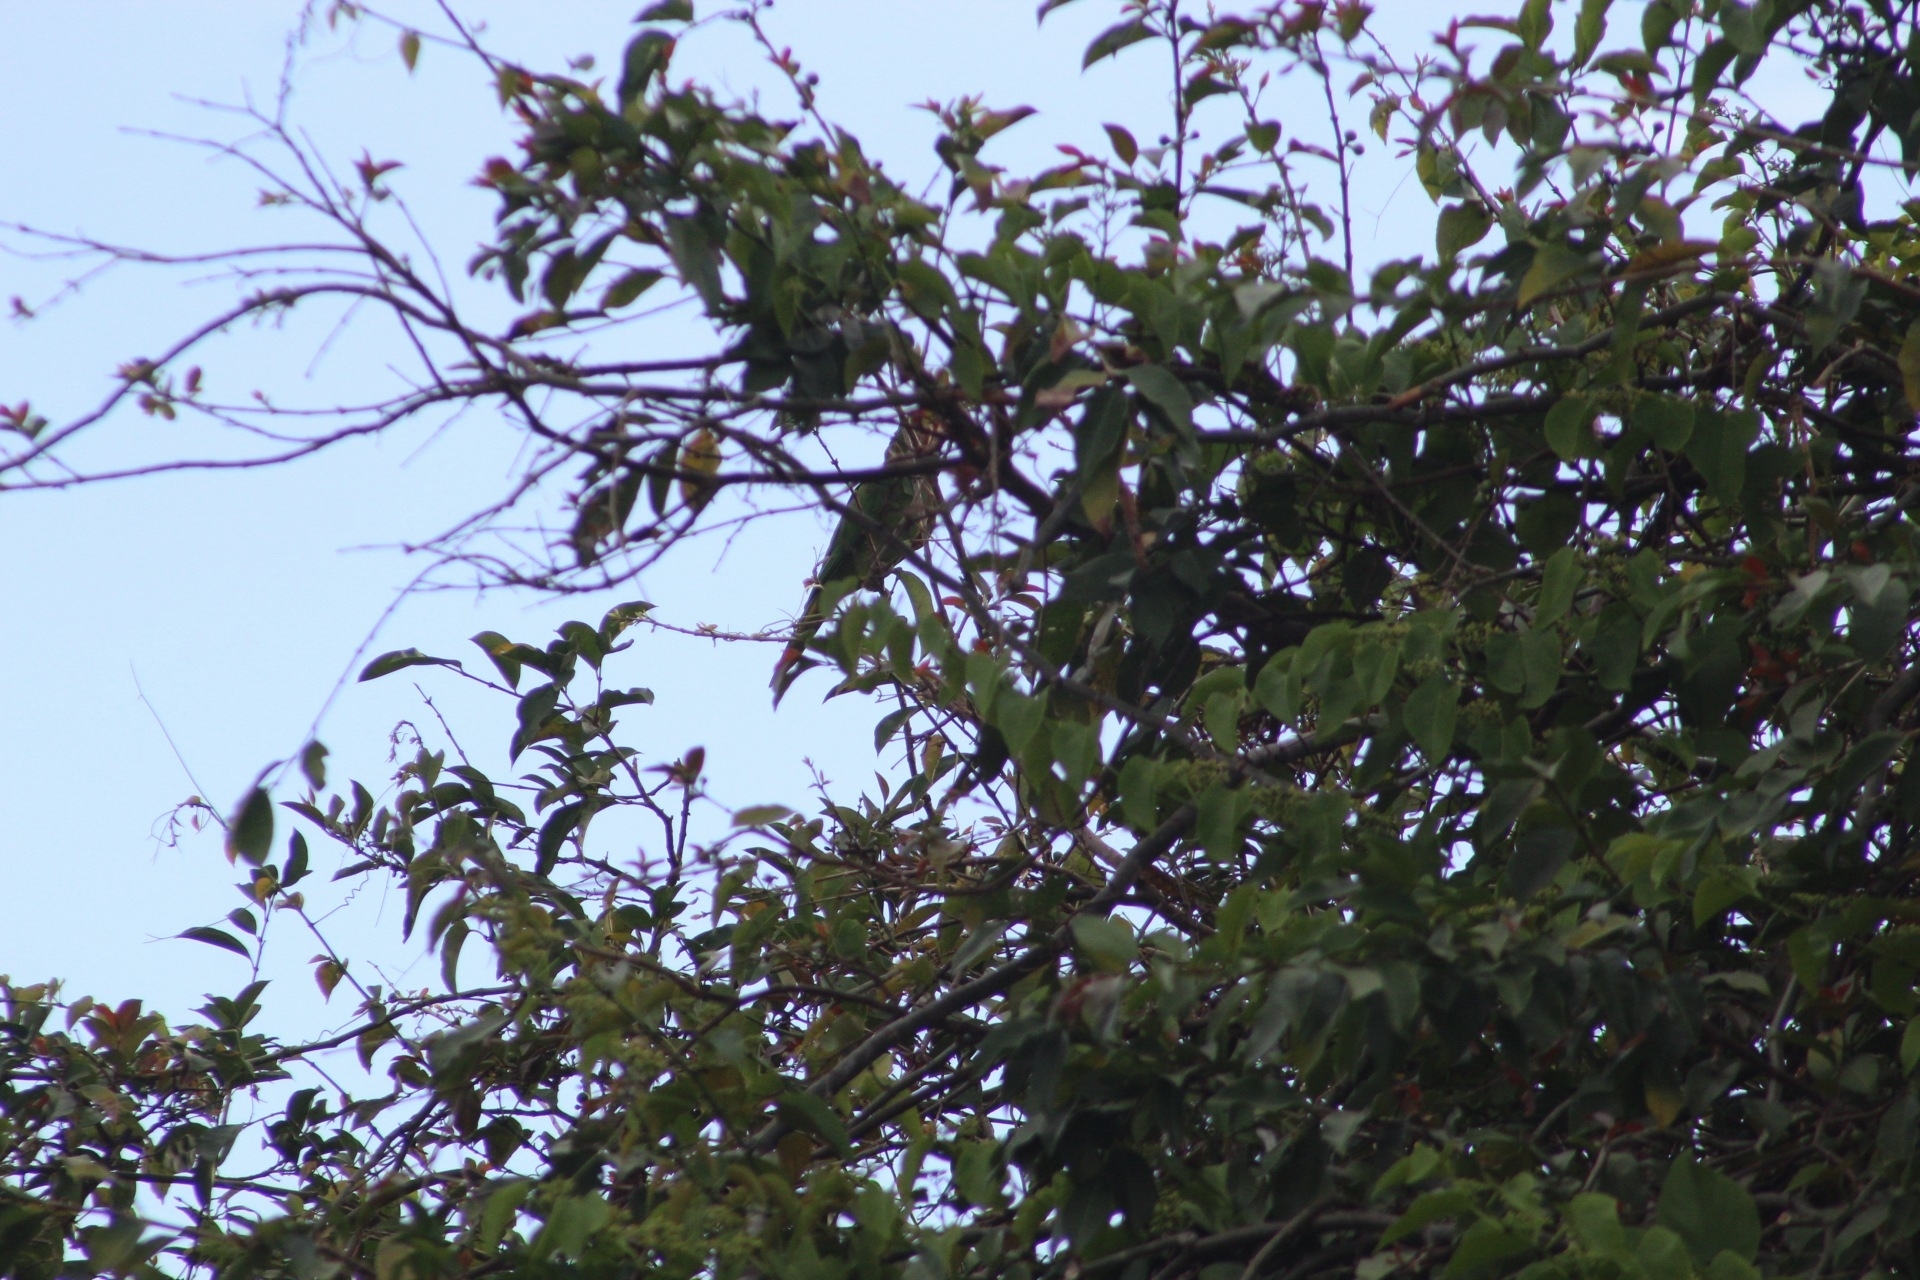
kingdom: Animalia
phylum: Chordata
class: Aves
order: Psittaciformes
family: Psittacidae
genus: Aratinga
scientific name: Aratinga finschi
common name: Crimson-fronted parakeet
